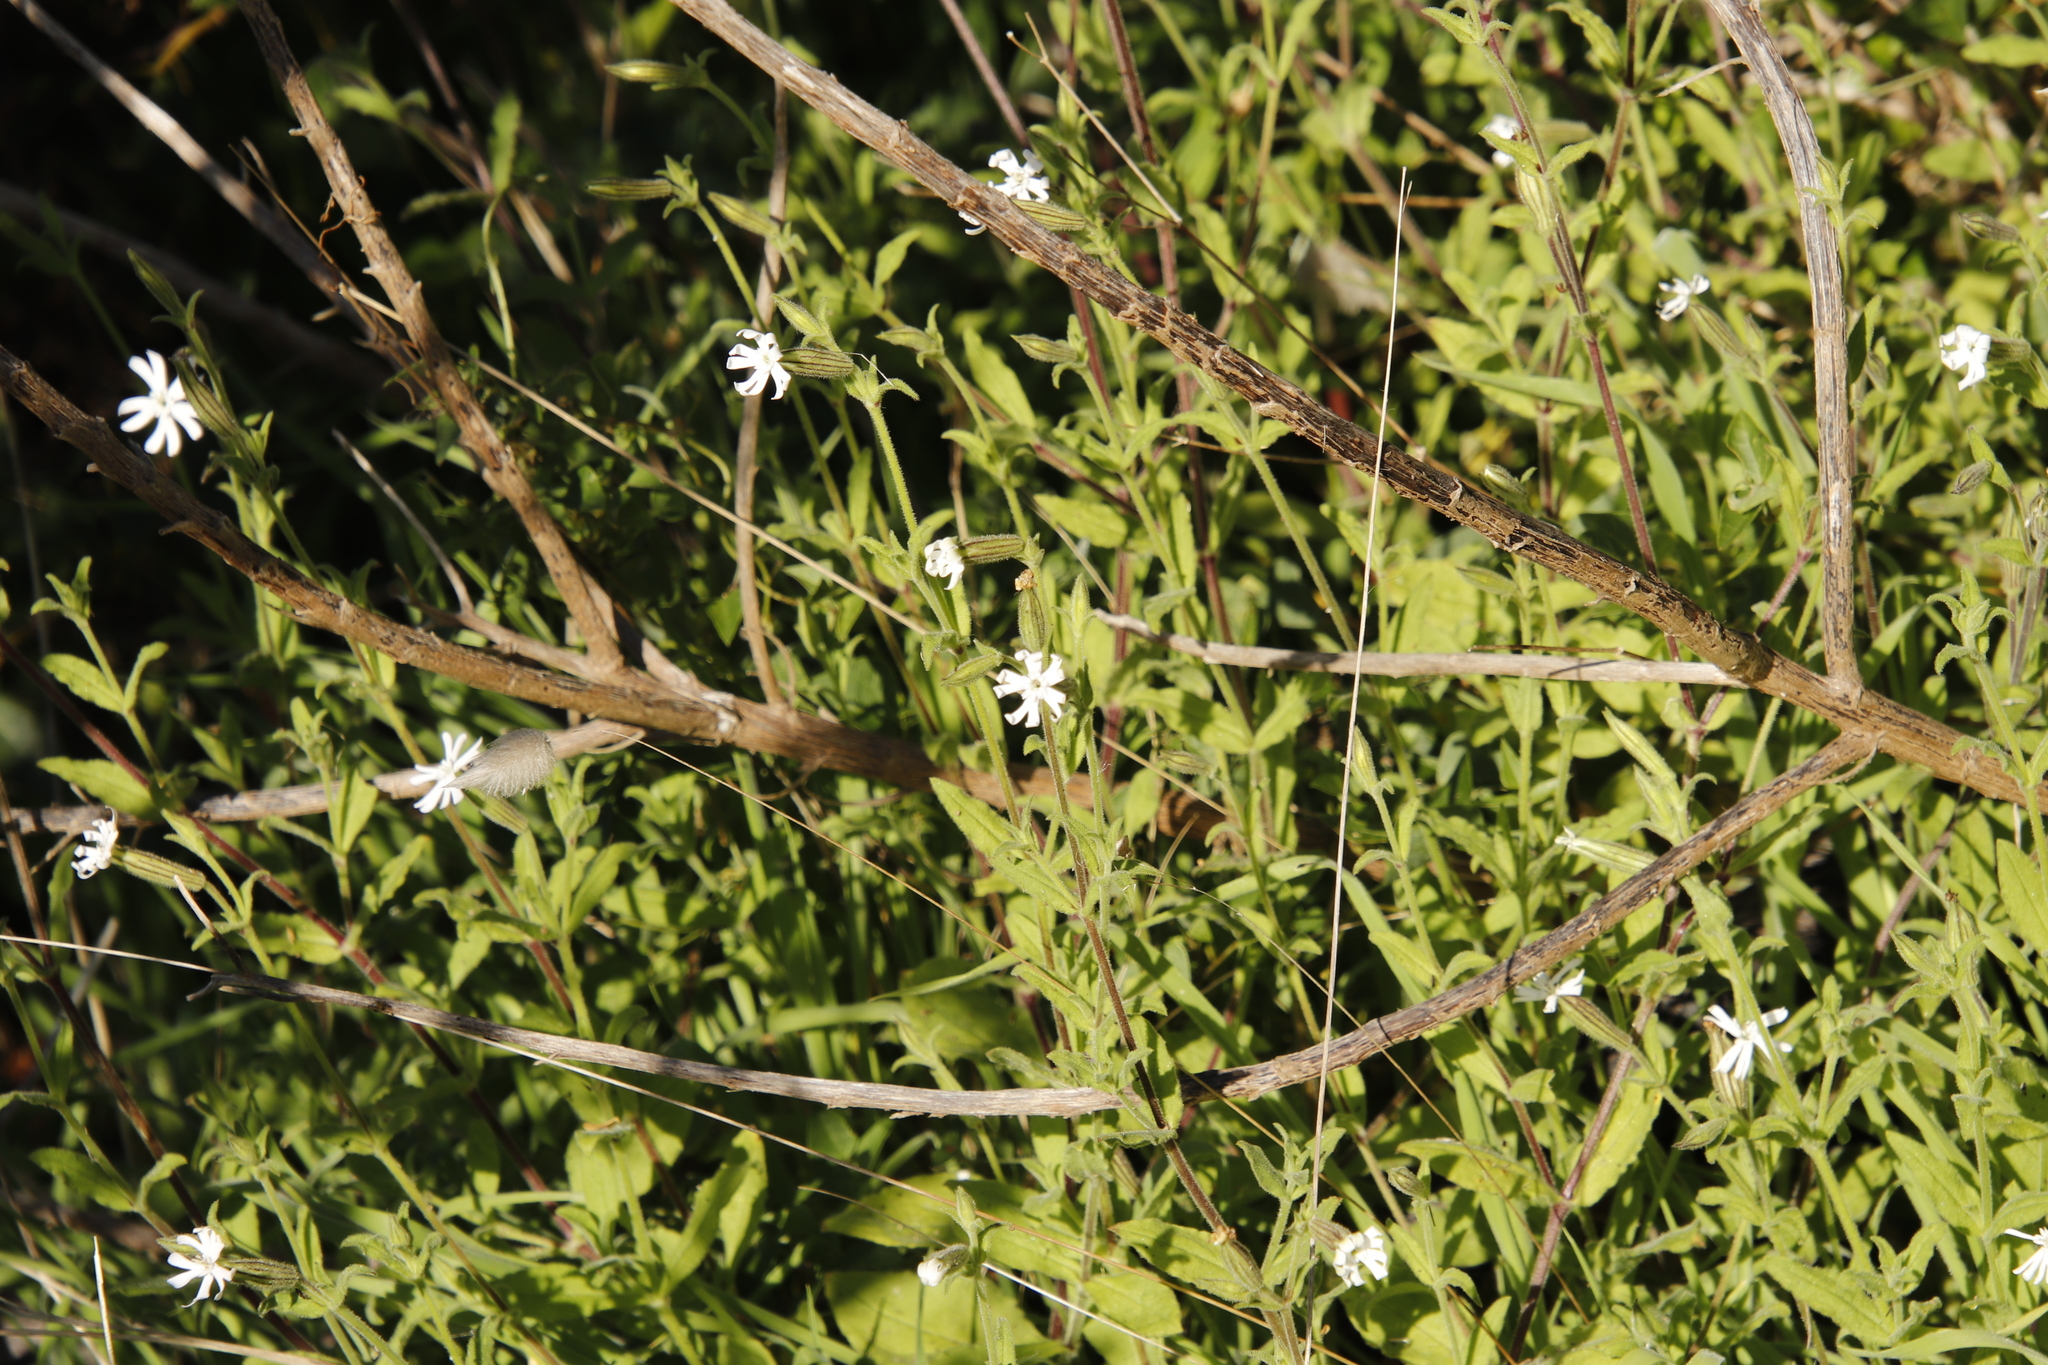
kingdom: Plantae
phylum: Tracheophyta
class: Magnoliopsida
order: Caryophyllales
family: Caryophyllaceae
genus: Silene
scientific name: Silene undulata
